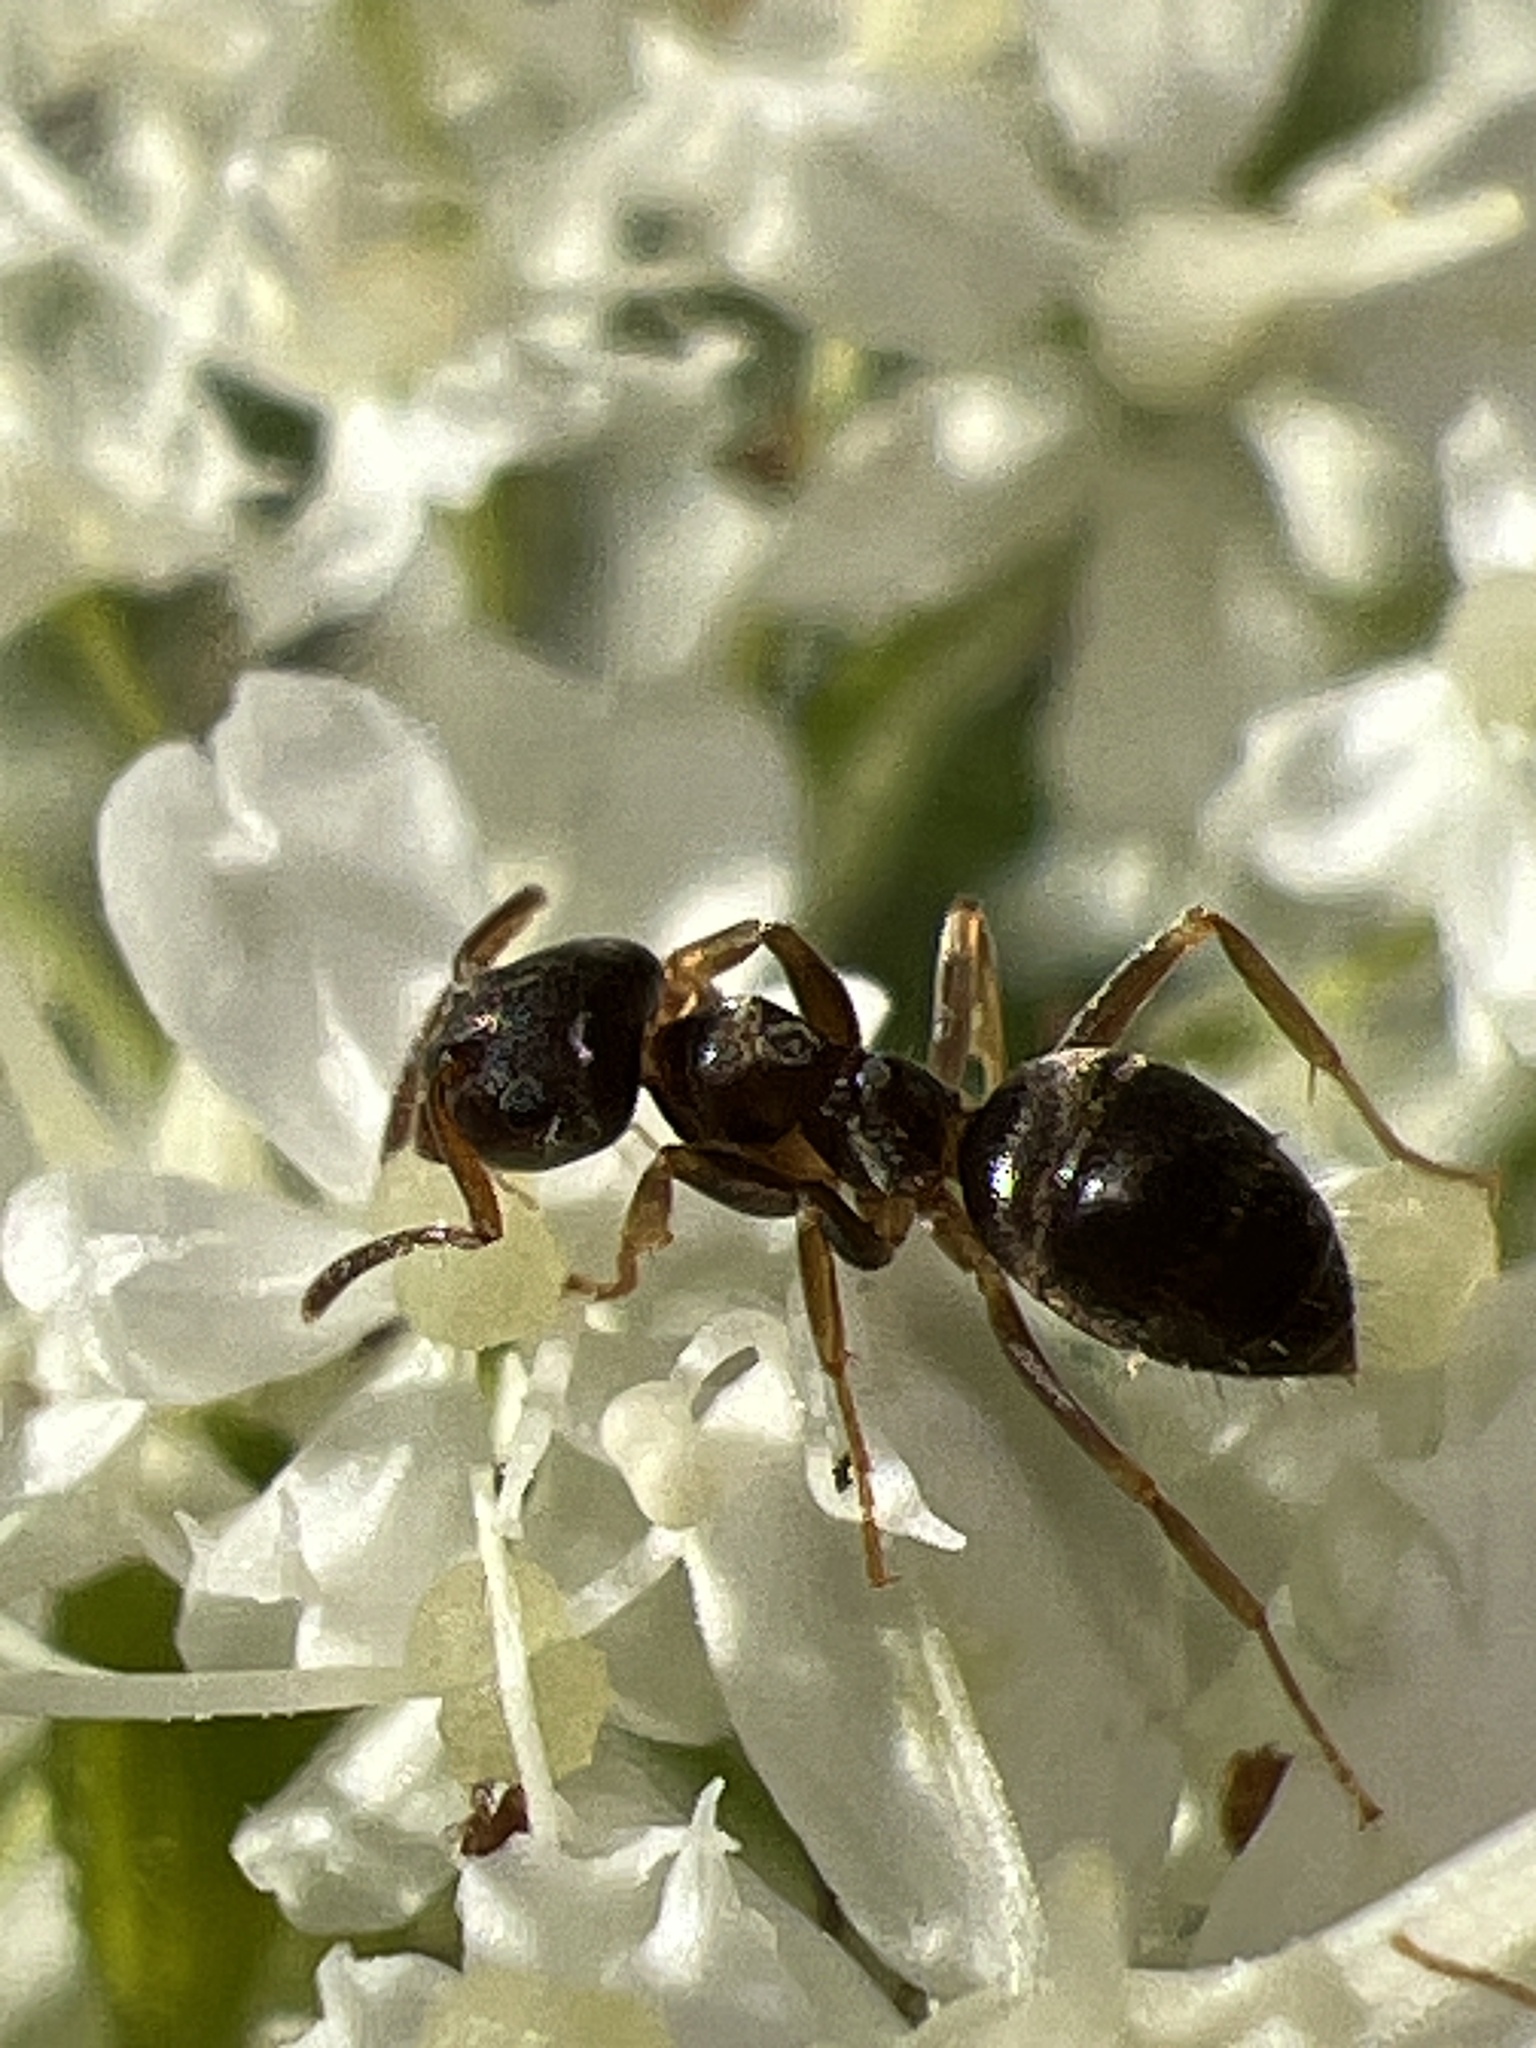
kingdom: Animalia
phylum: Arthropoda
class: Insecta
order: Hymenoptera
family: Formicidae
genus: Lasius
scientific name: Lasius americanus
